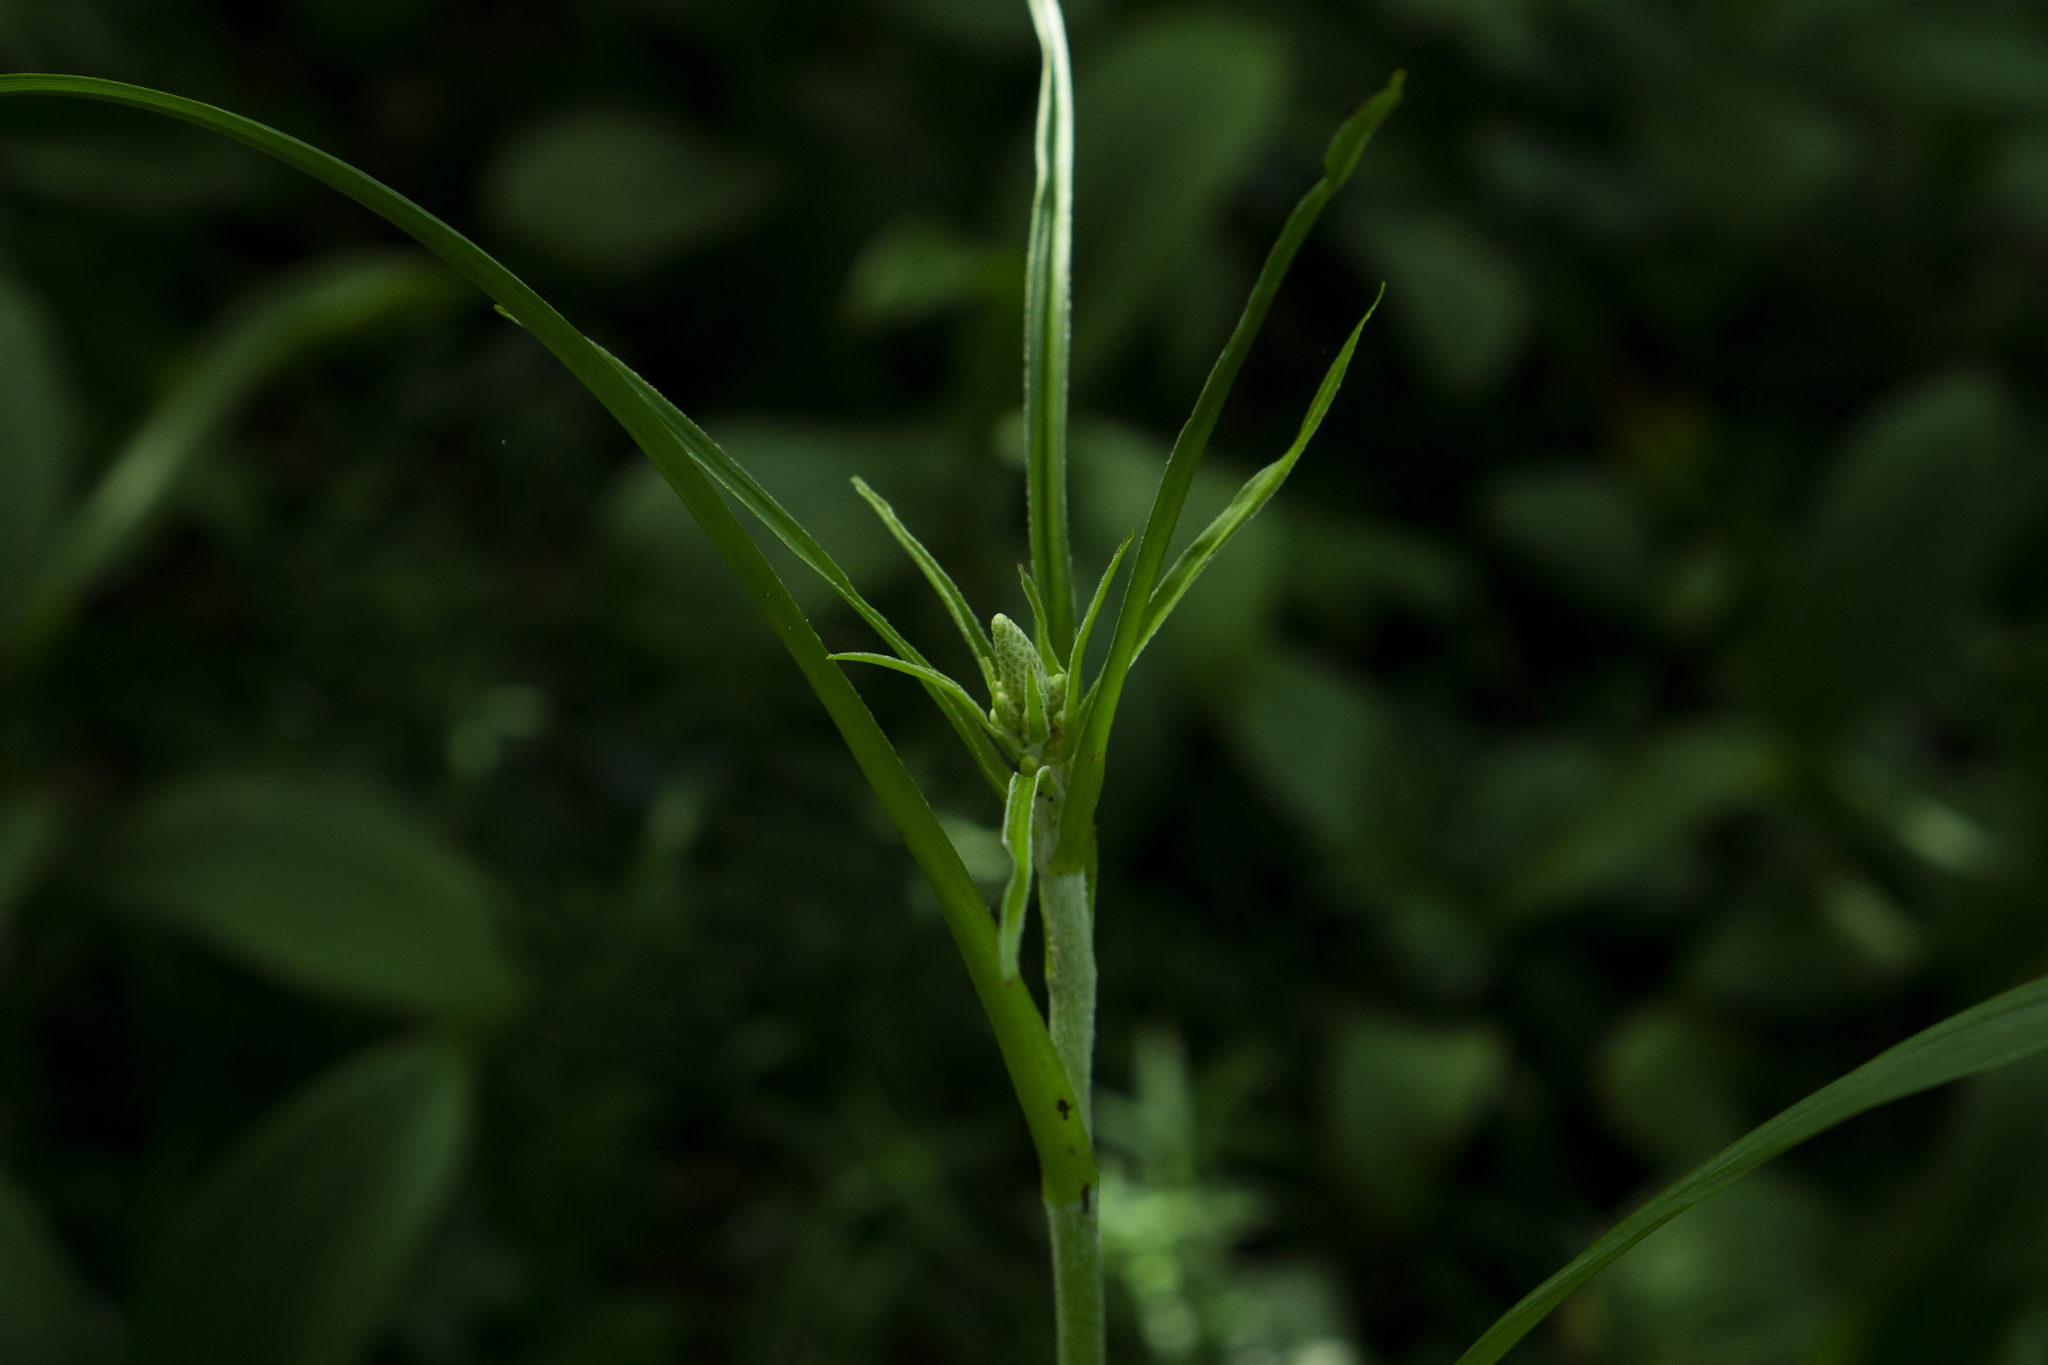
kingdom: Plantae
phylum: Tracheophyta
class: Liliopsida
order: Liliales
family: Melanthiaceae
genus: Veratrum
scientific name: Veratrum nigrum
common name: Black veratrum
